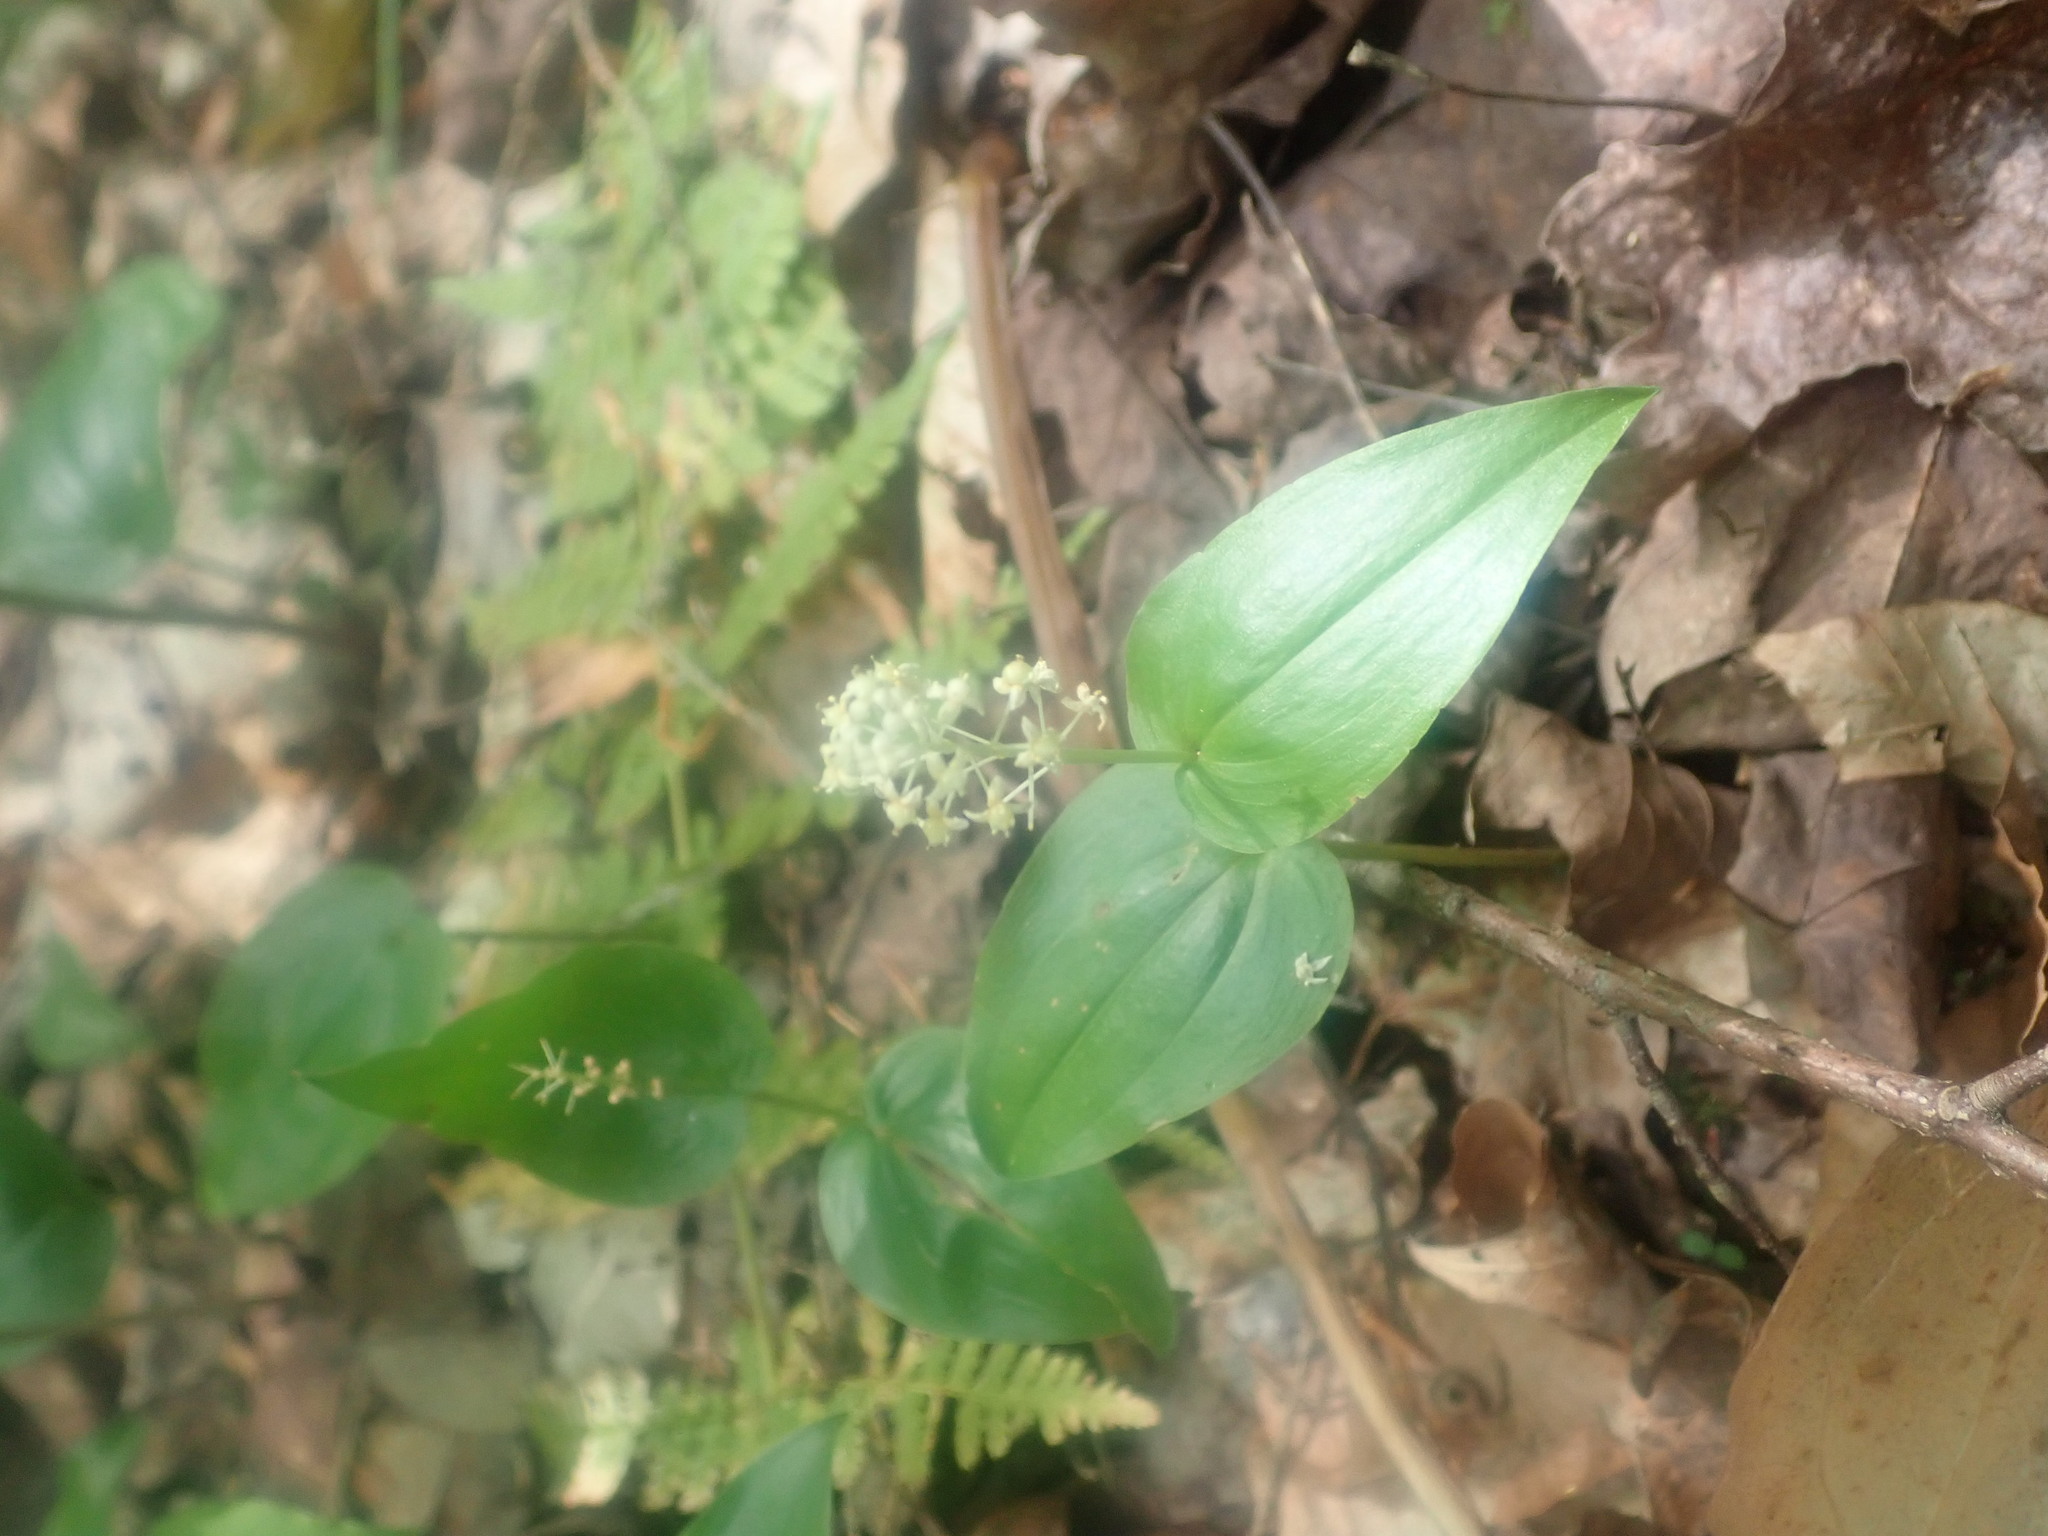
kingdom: Plantae
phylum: Tracheophyta
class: Liliopsida
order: Asparagales
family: Asparagaceae
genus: Maianthemum
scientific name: Maianthemum canadense
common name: False lily-of-the-valley
